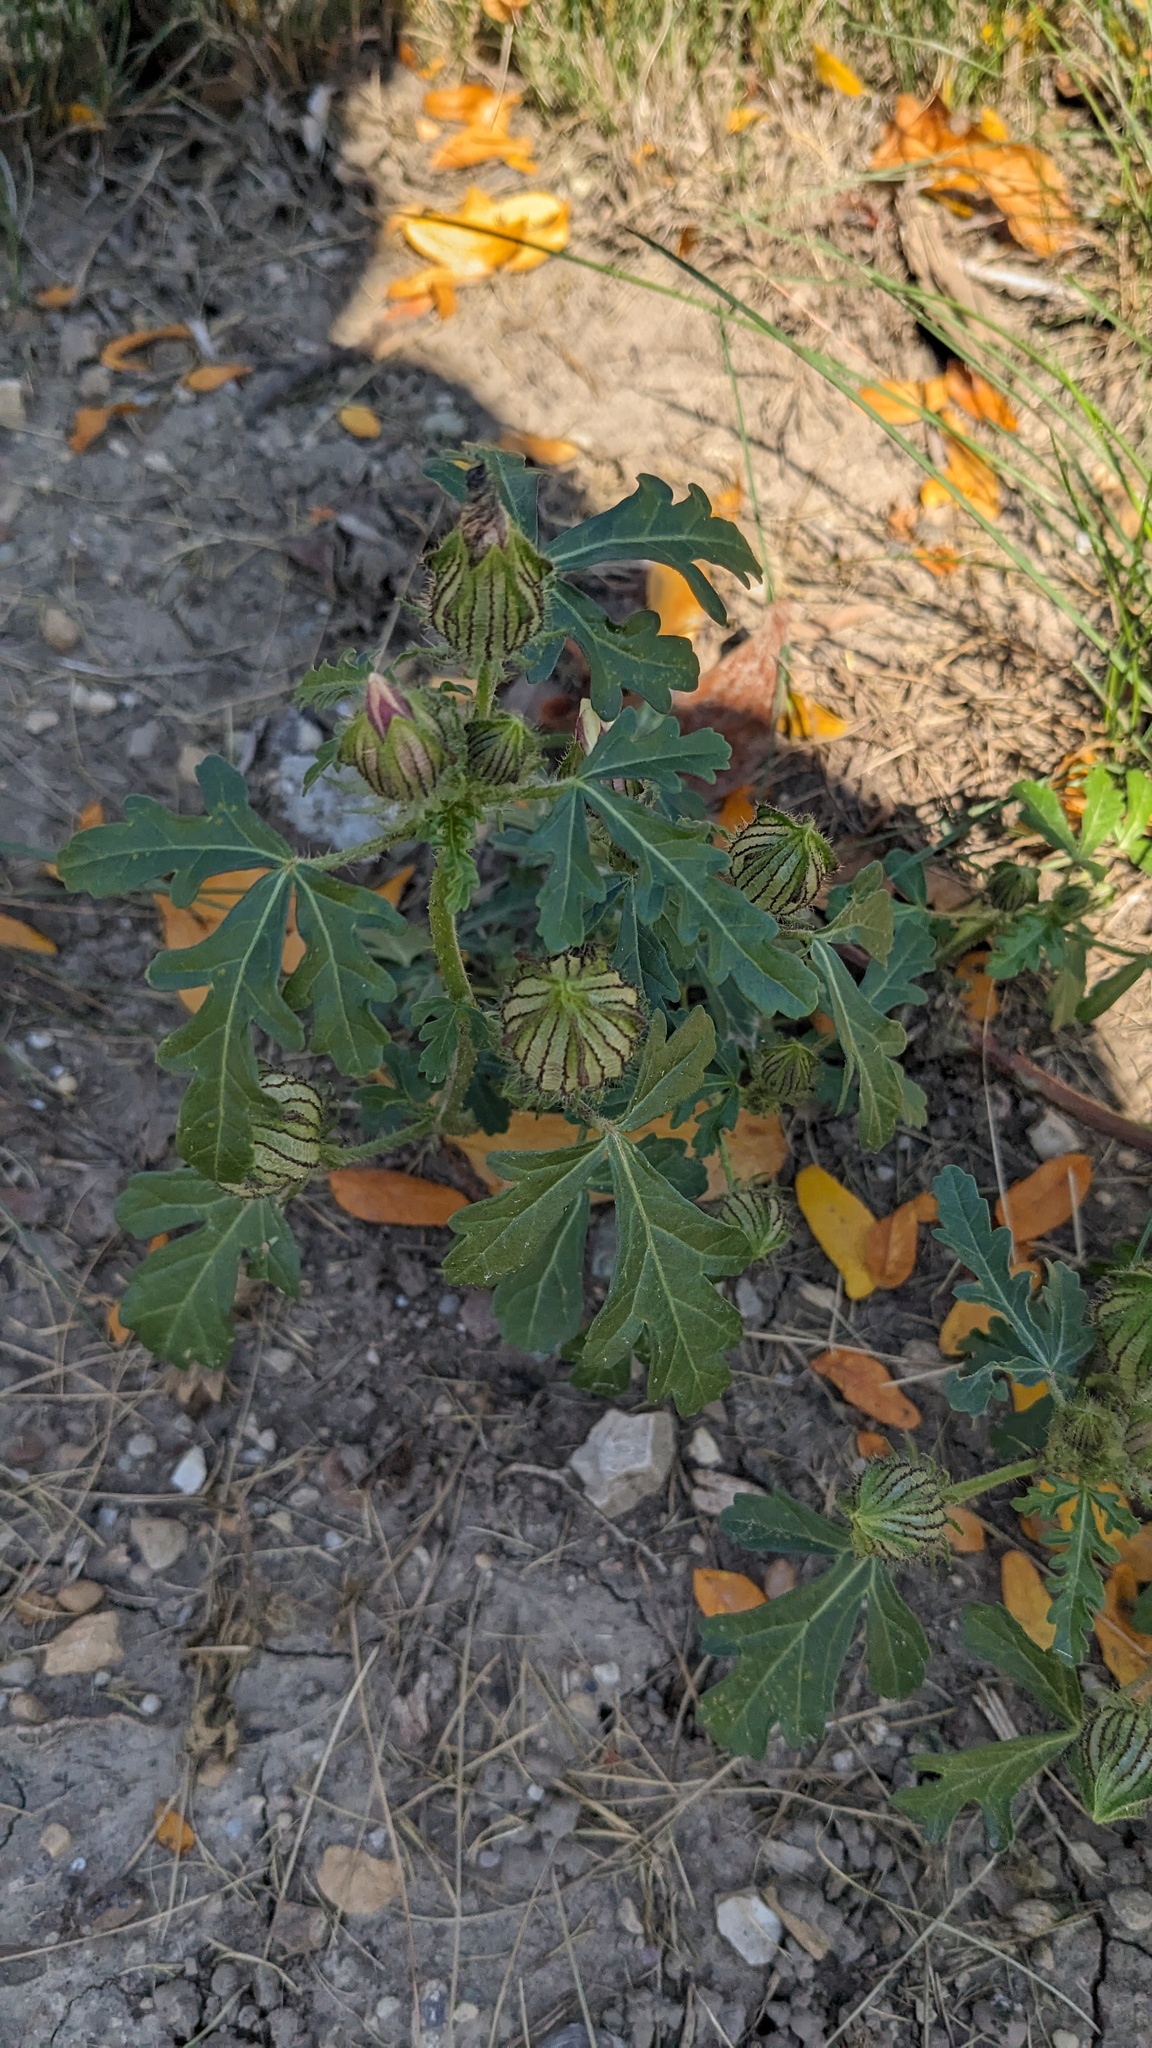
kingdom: Plantae
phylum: Tracheophyta
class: Magnoliopsida
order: Malvales
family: Malvaceae
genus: Hibiscus
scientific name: Hibiscus trionum
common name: Bladder ketmia
